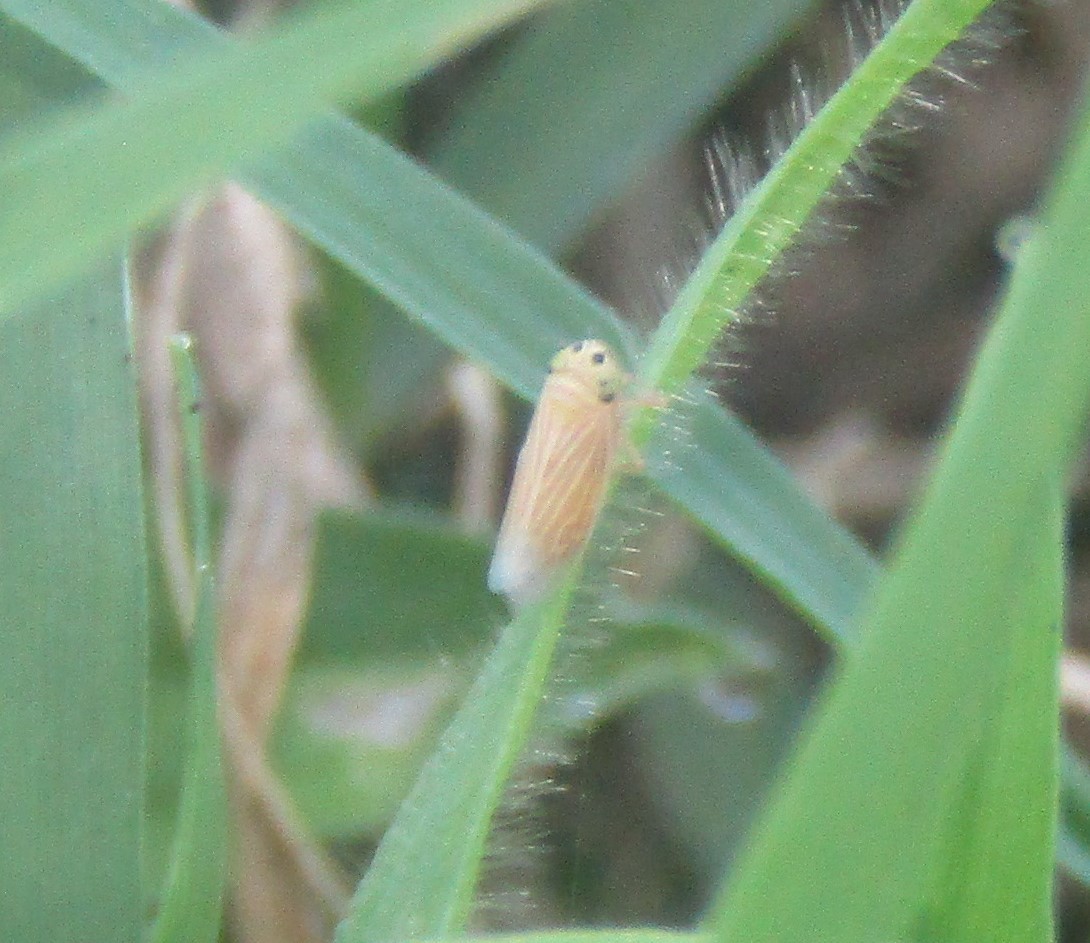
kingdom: Animalia
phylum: Arthropoda
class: Insecta
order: Hemiptera
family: Cicadellidae
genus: Graminella
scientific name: Graminella villicus
